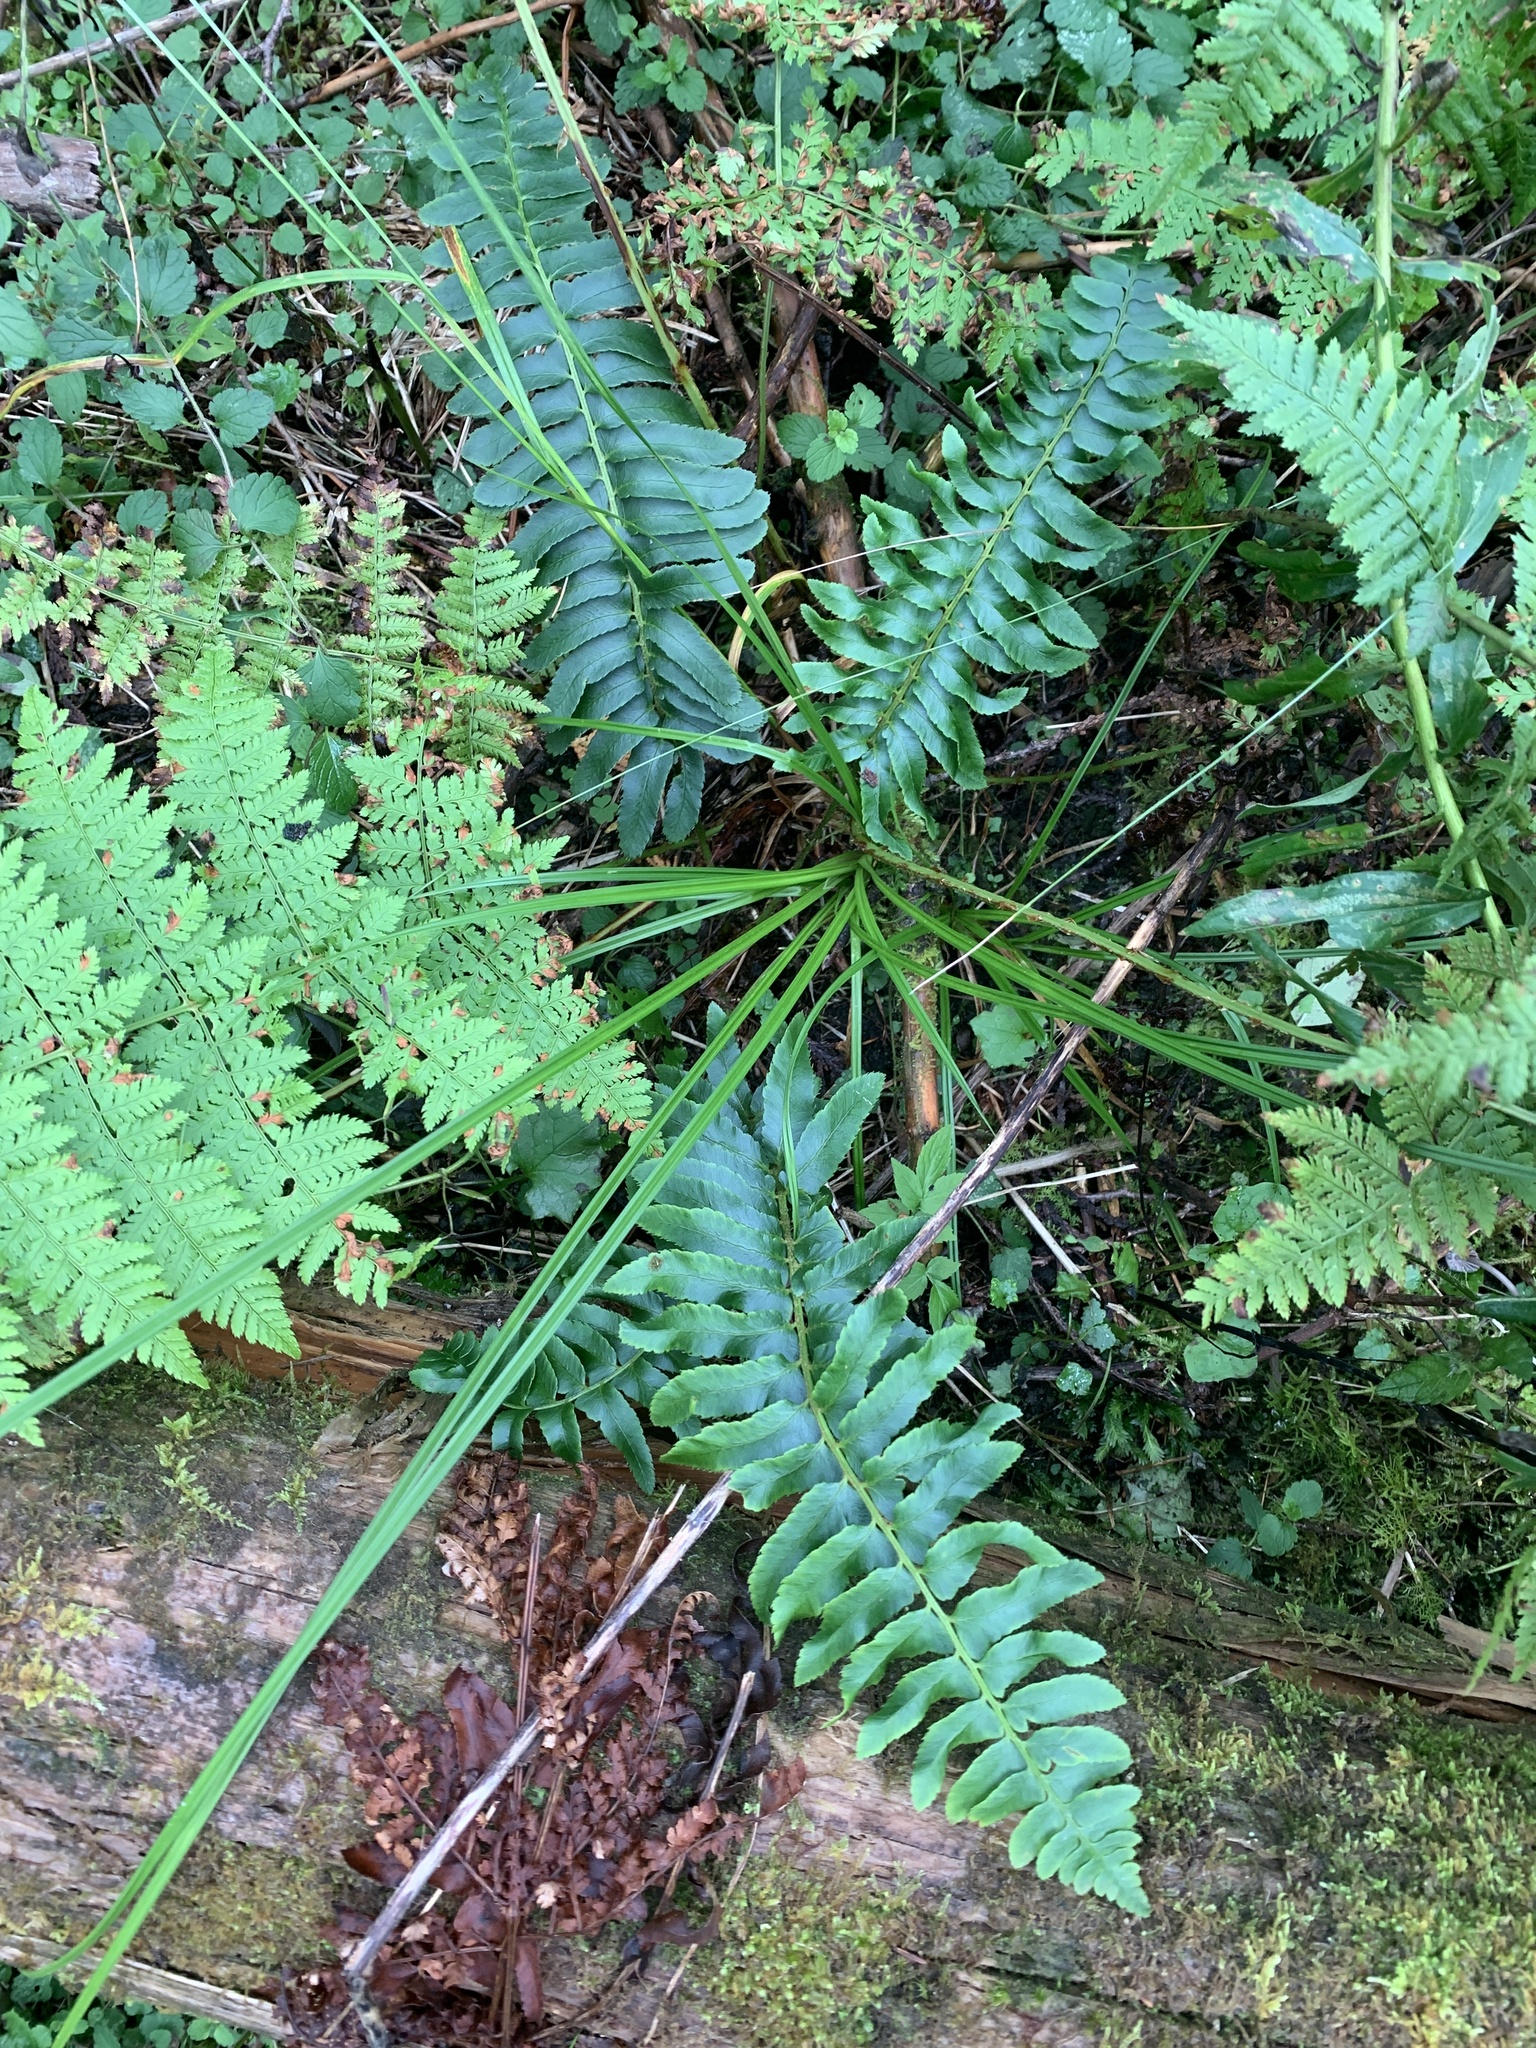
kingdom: Plantae
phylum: Tracheophyta
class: Polypodiopsida
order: Polypodiales
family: Dryopteridaceae
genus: Polystichum
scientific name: Polystichum acrostichoides
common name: Christmas fern
